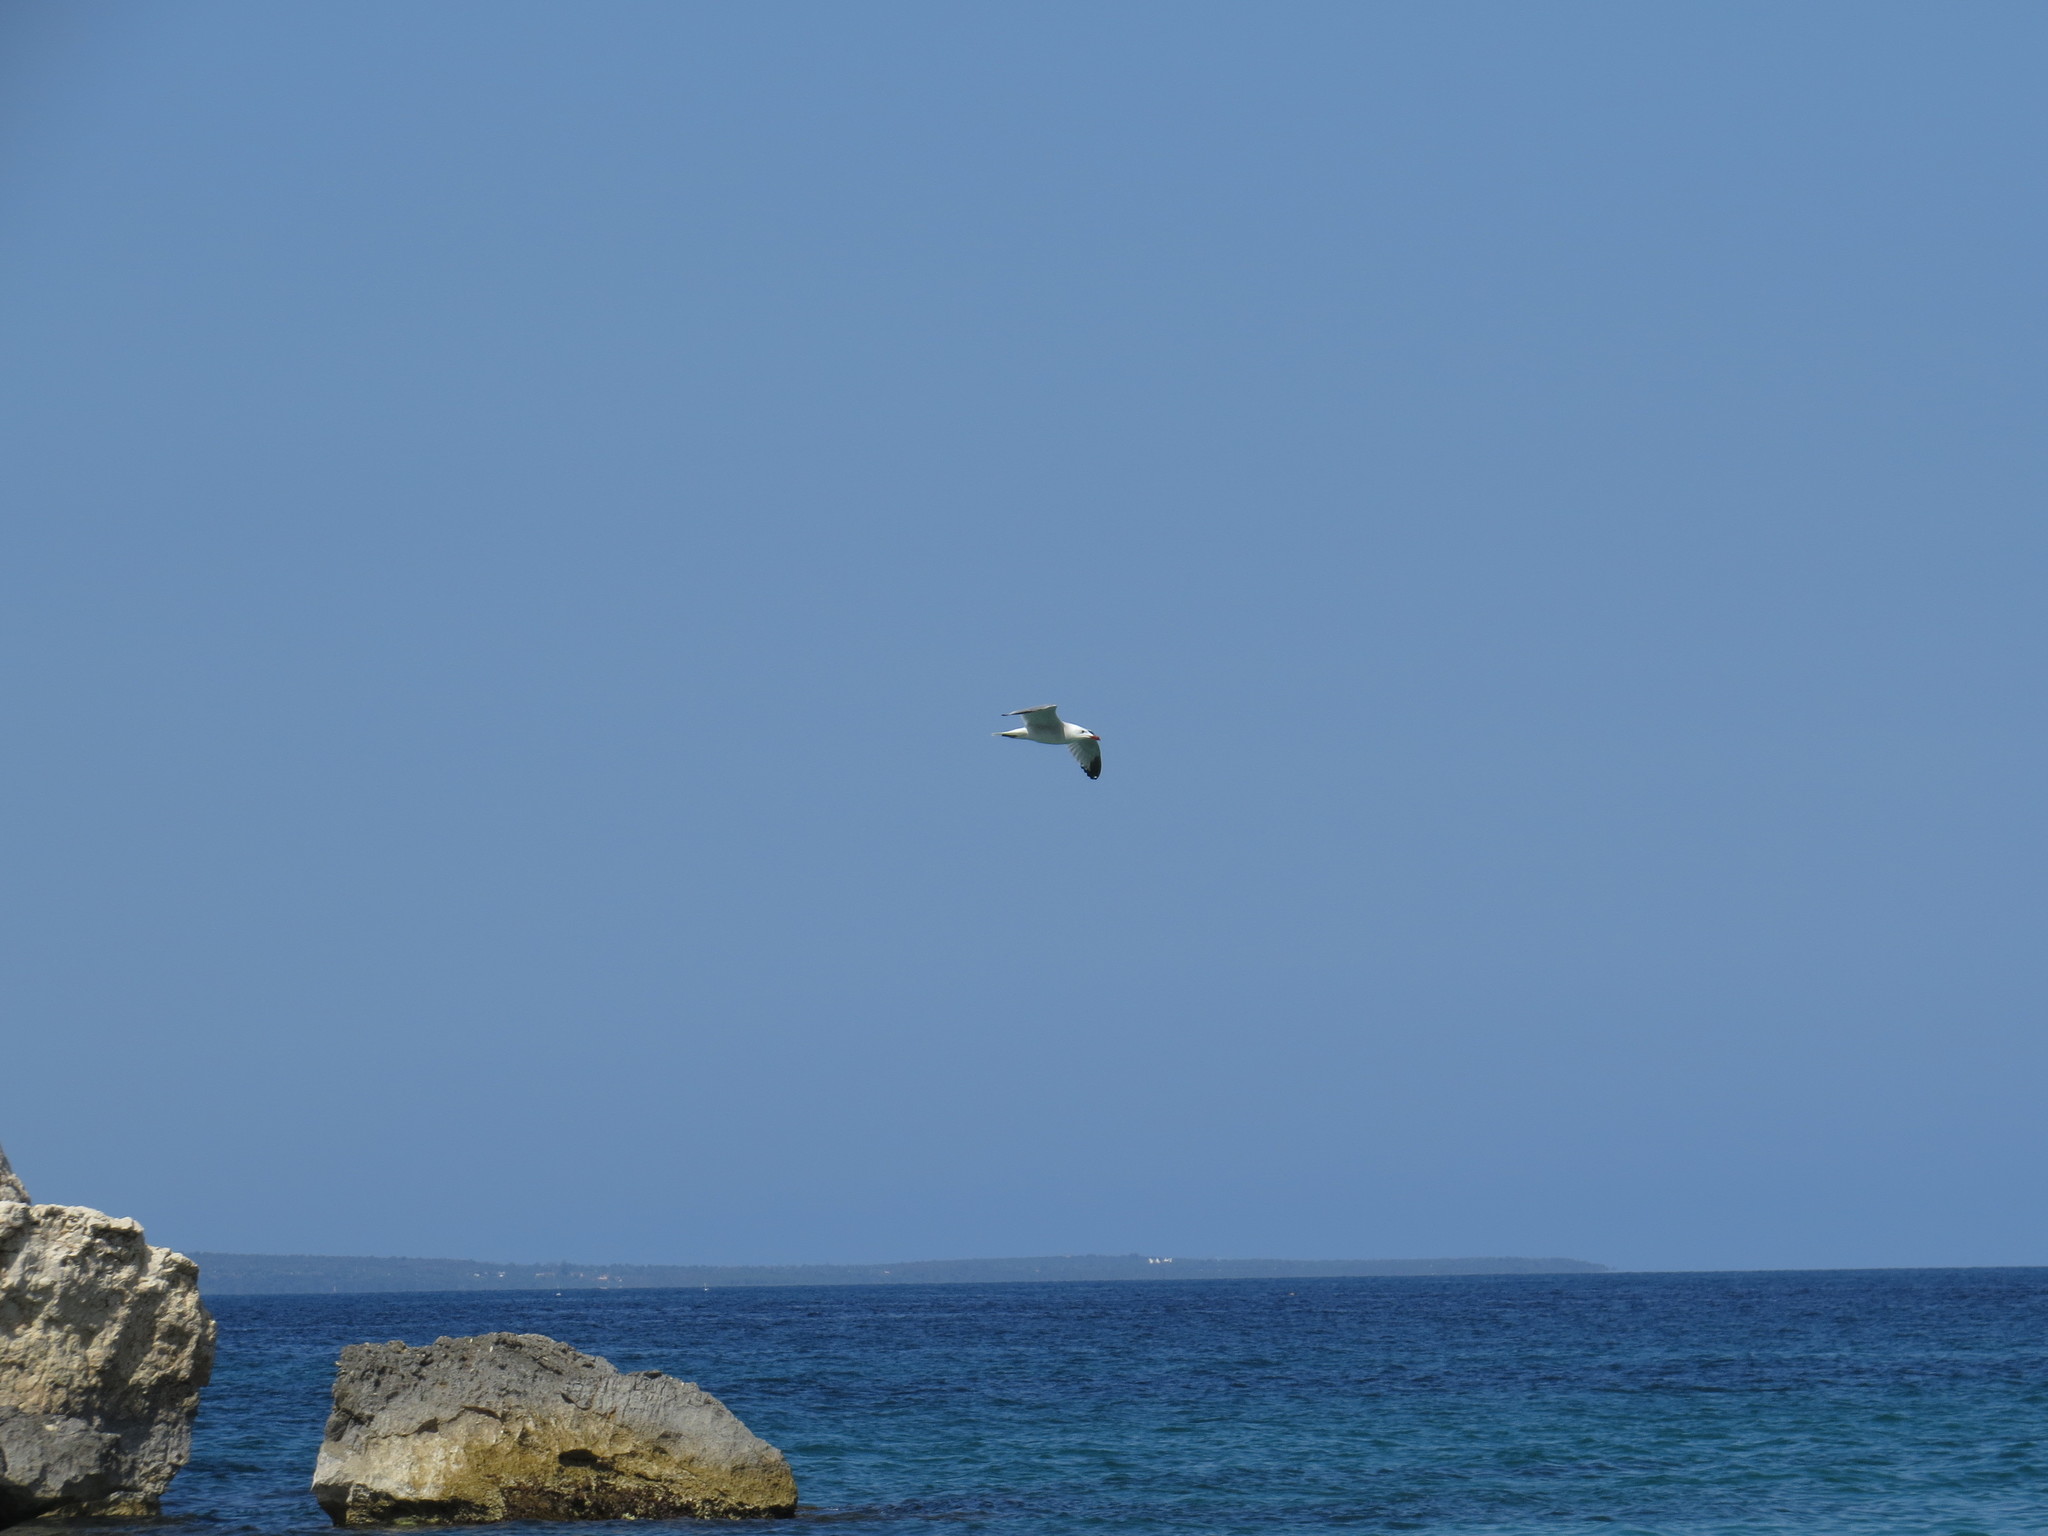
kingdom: Animalia
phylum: Chordata
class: Aves
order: Charadriiformes
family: Laridae
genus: Ichthyaetus
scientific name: Ichthyaetus audouinii
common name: Audouin's gull
